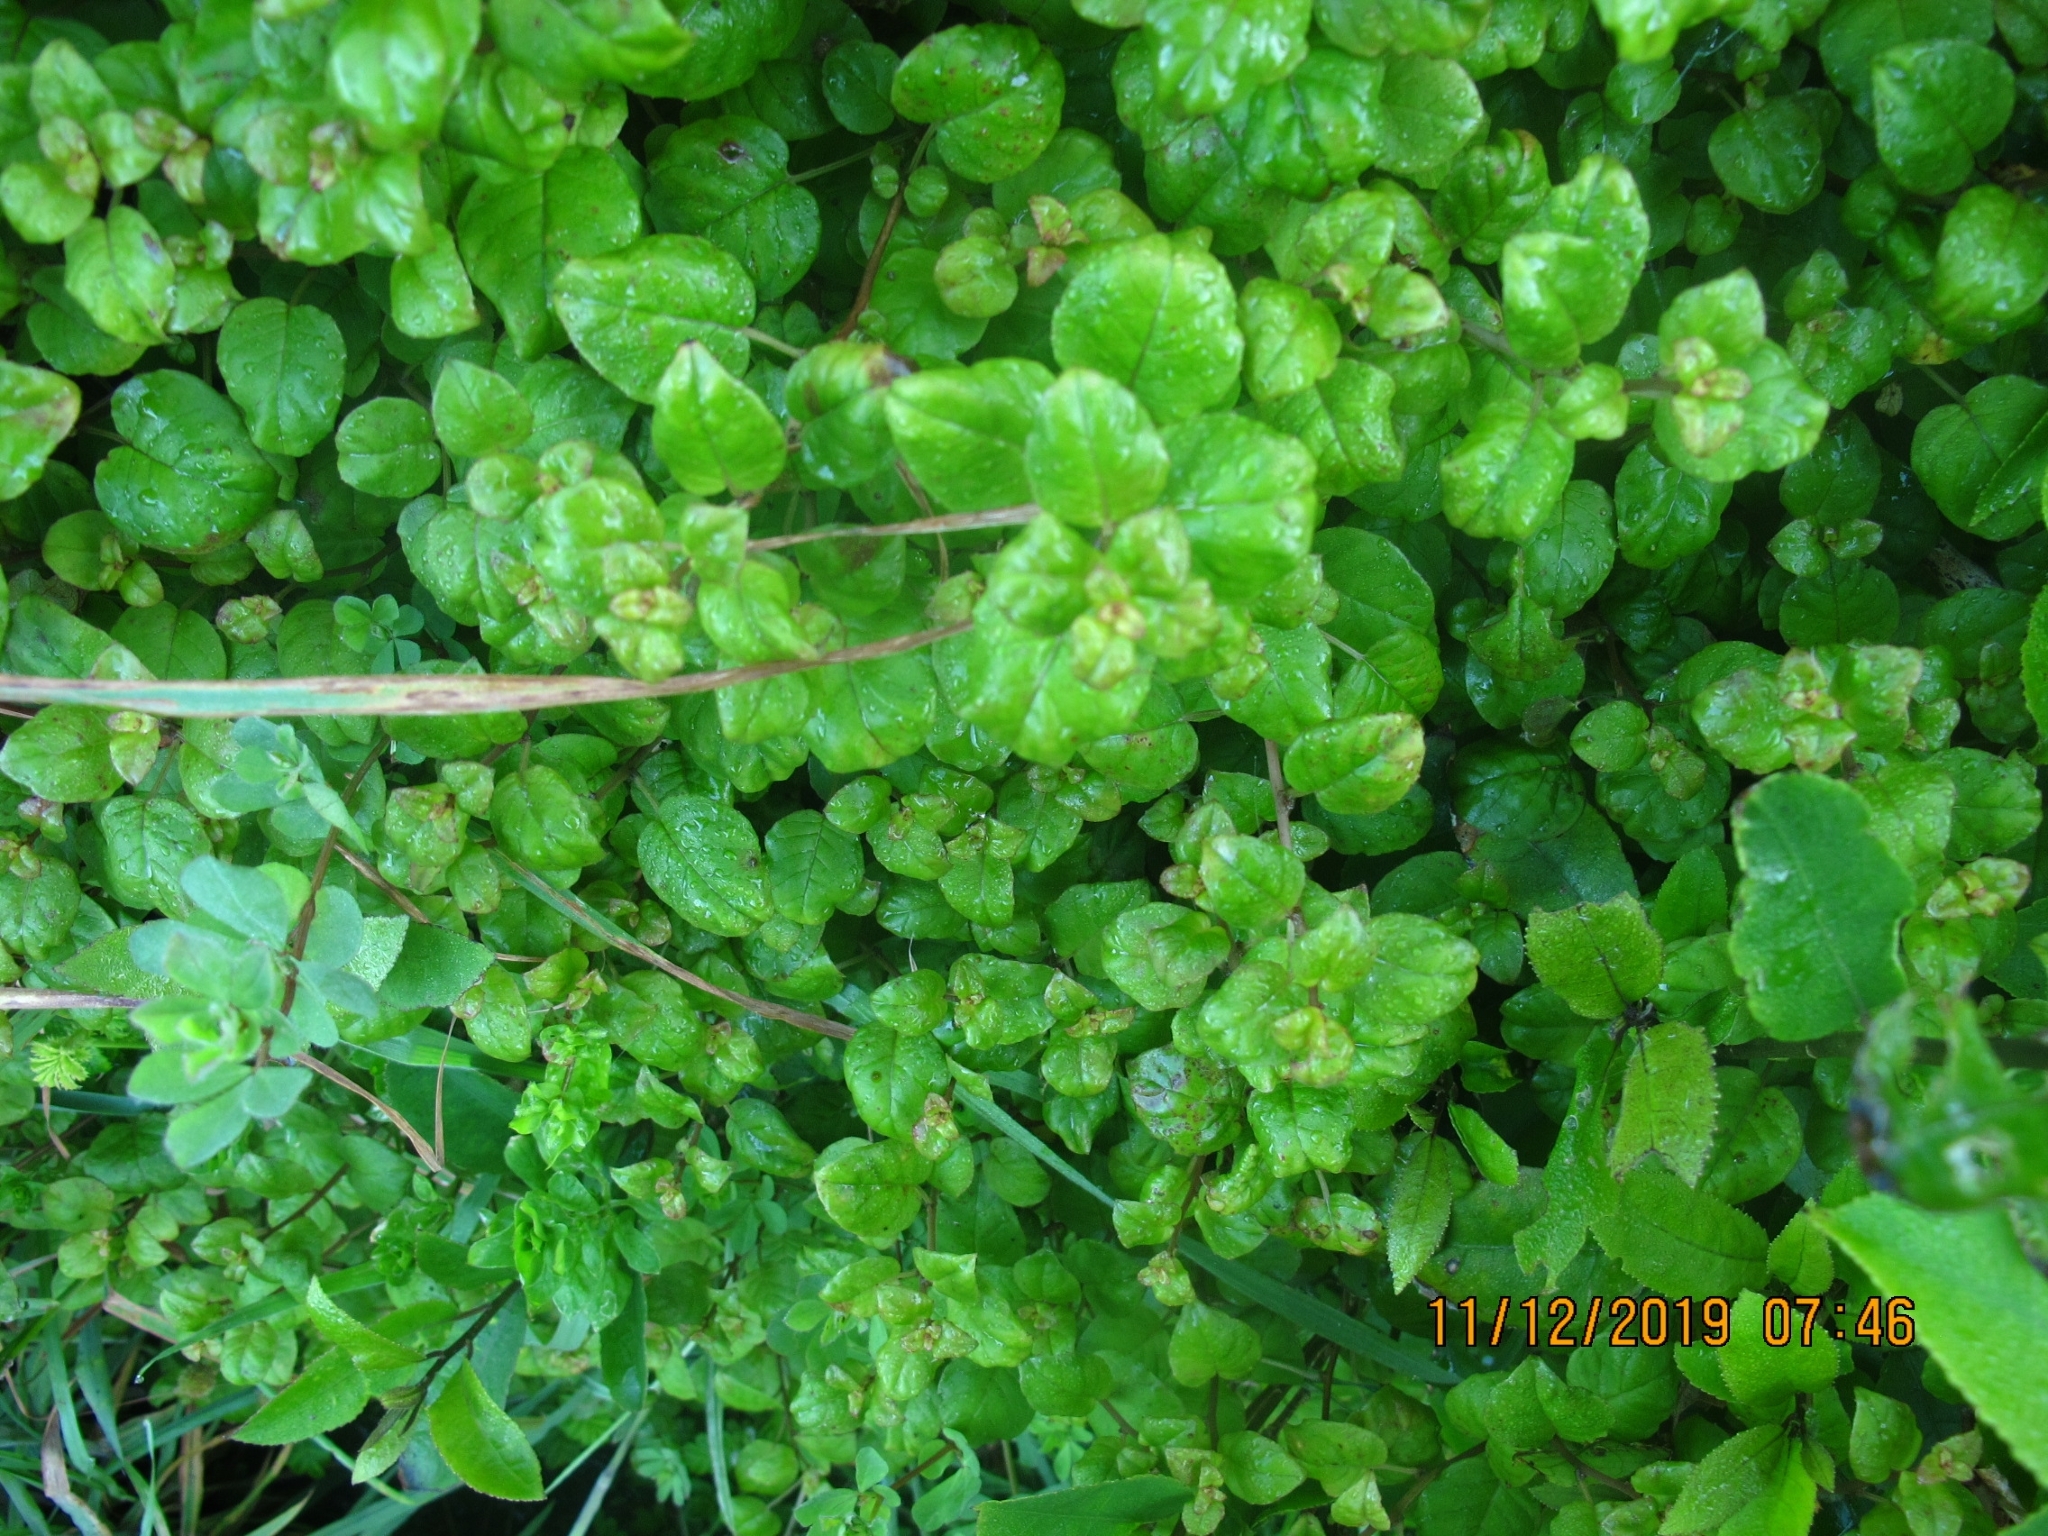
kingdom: Plantae
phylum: Tracheophyta
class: Magnoliopsida
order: Myrtales
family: Onagraceae
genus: Fuchsia
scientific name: Fuchsia perscandens
